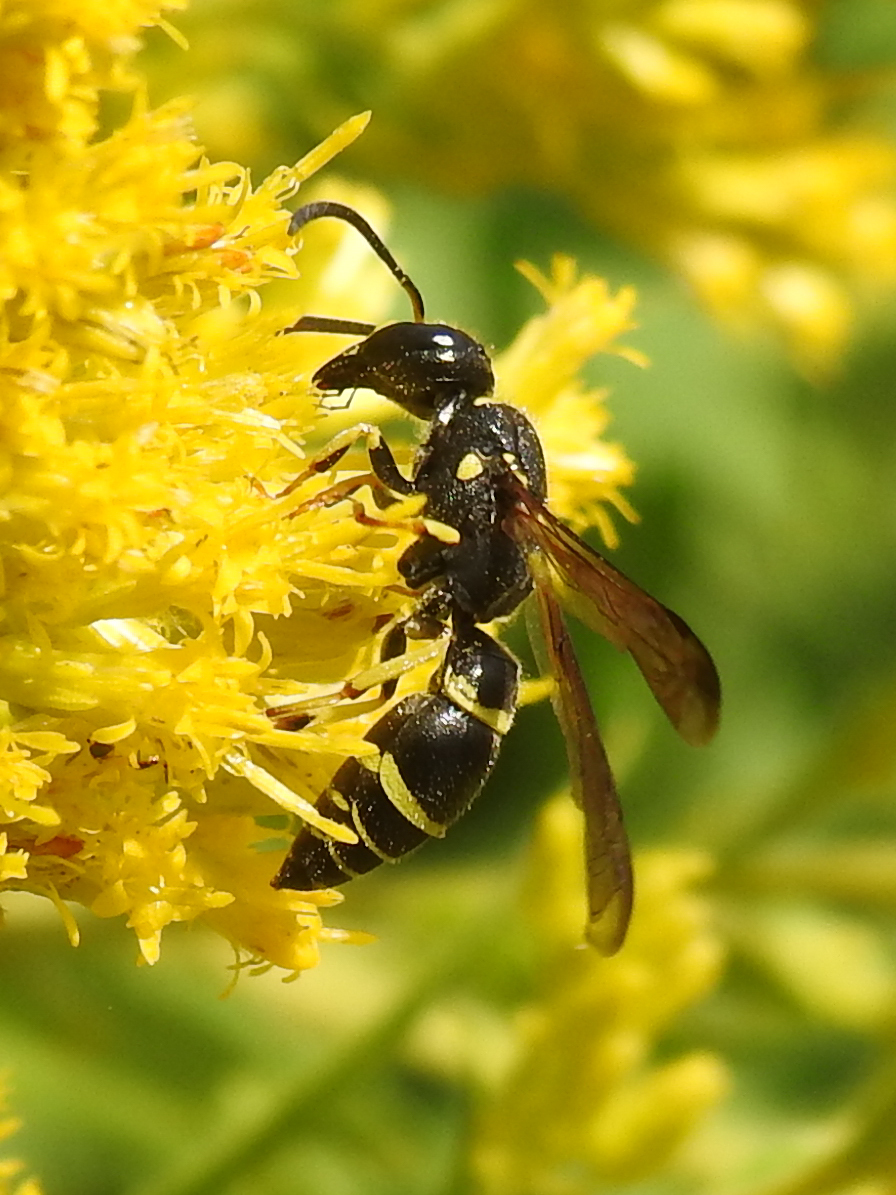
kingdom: Animalia
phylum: Arthropoda
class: Insecta
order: Hymenoptera
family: Vespidae
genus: Ancistrocerus
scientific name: Ancistrocerus adiabatus
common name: Bramble mason wasp
